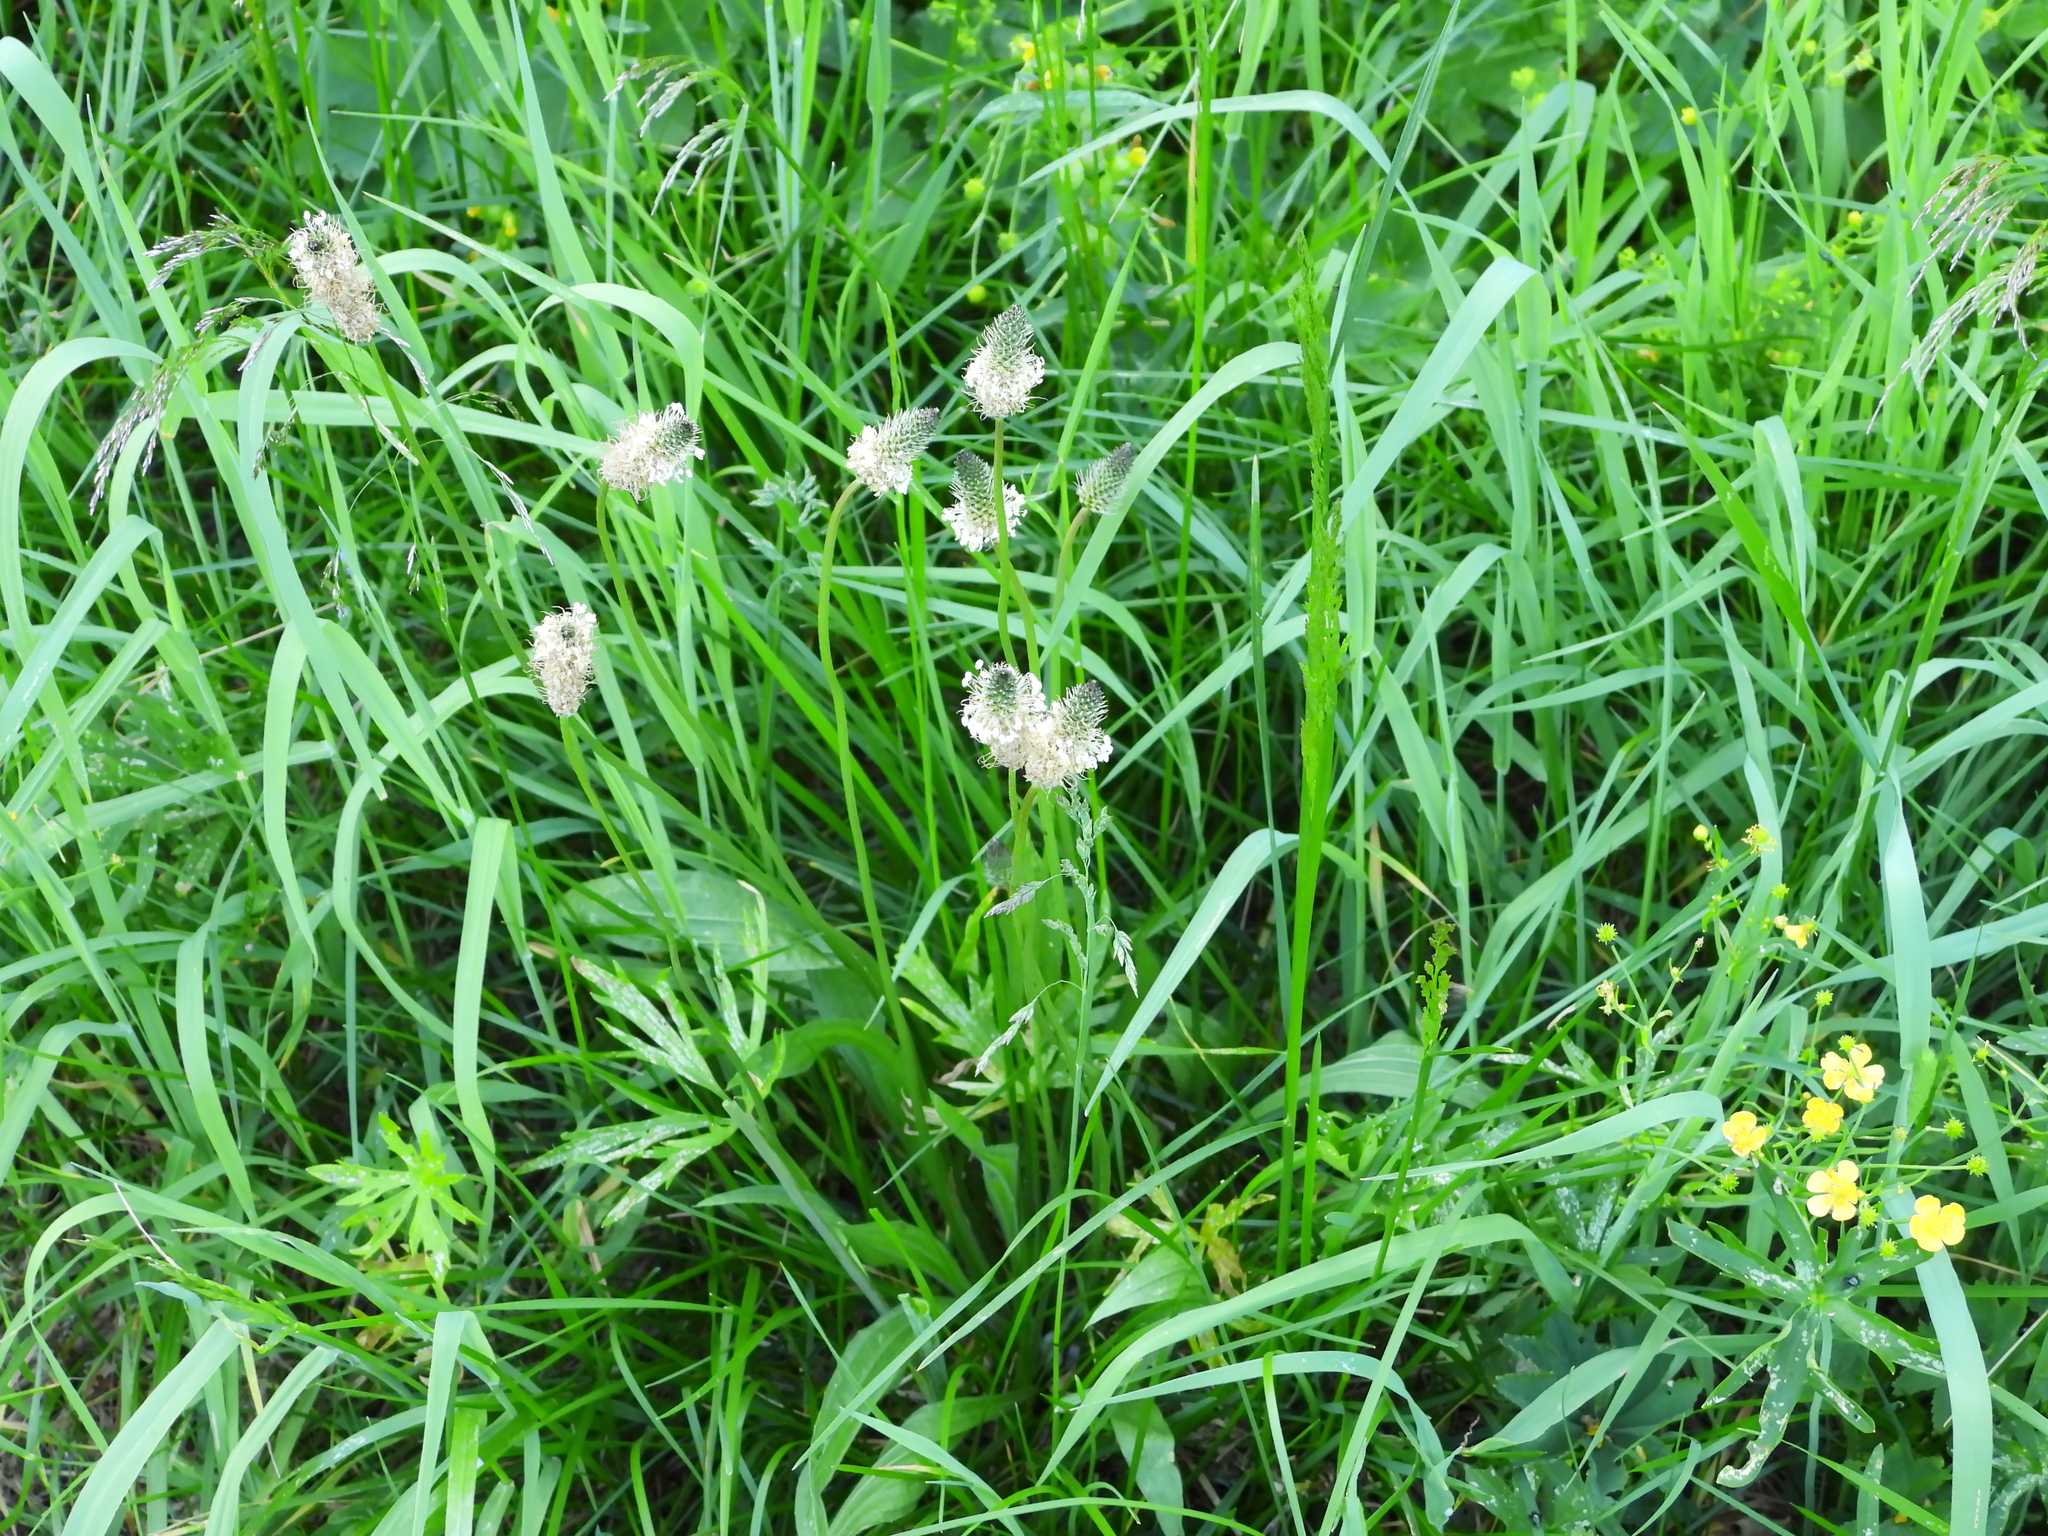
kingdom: Plantae
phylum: Tracheophyta
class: Magnoliopsida
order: Lamiales
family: Plantaginaceae
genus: Plantago
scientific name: Plantago lanceolata
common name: Ribwort plantain
